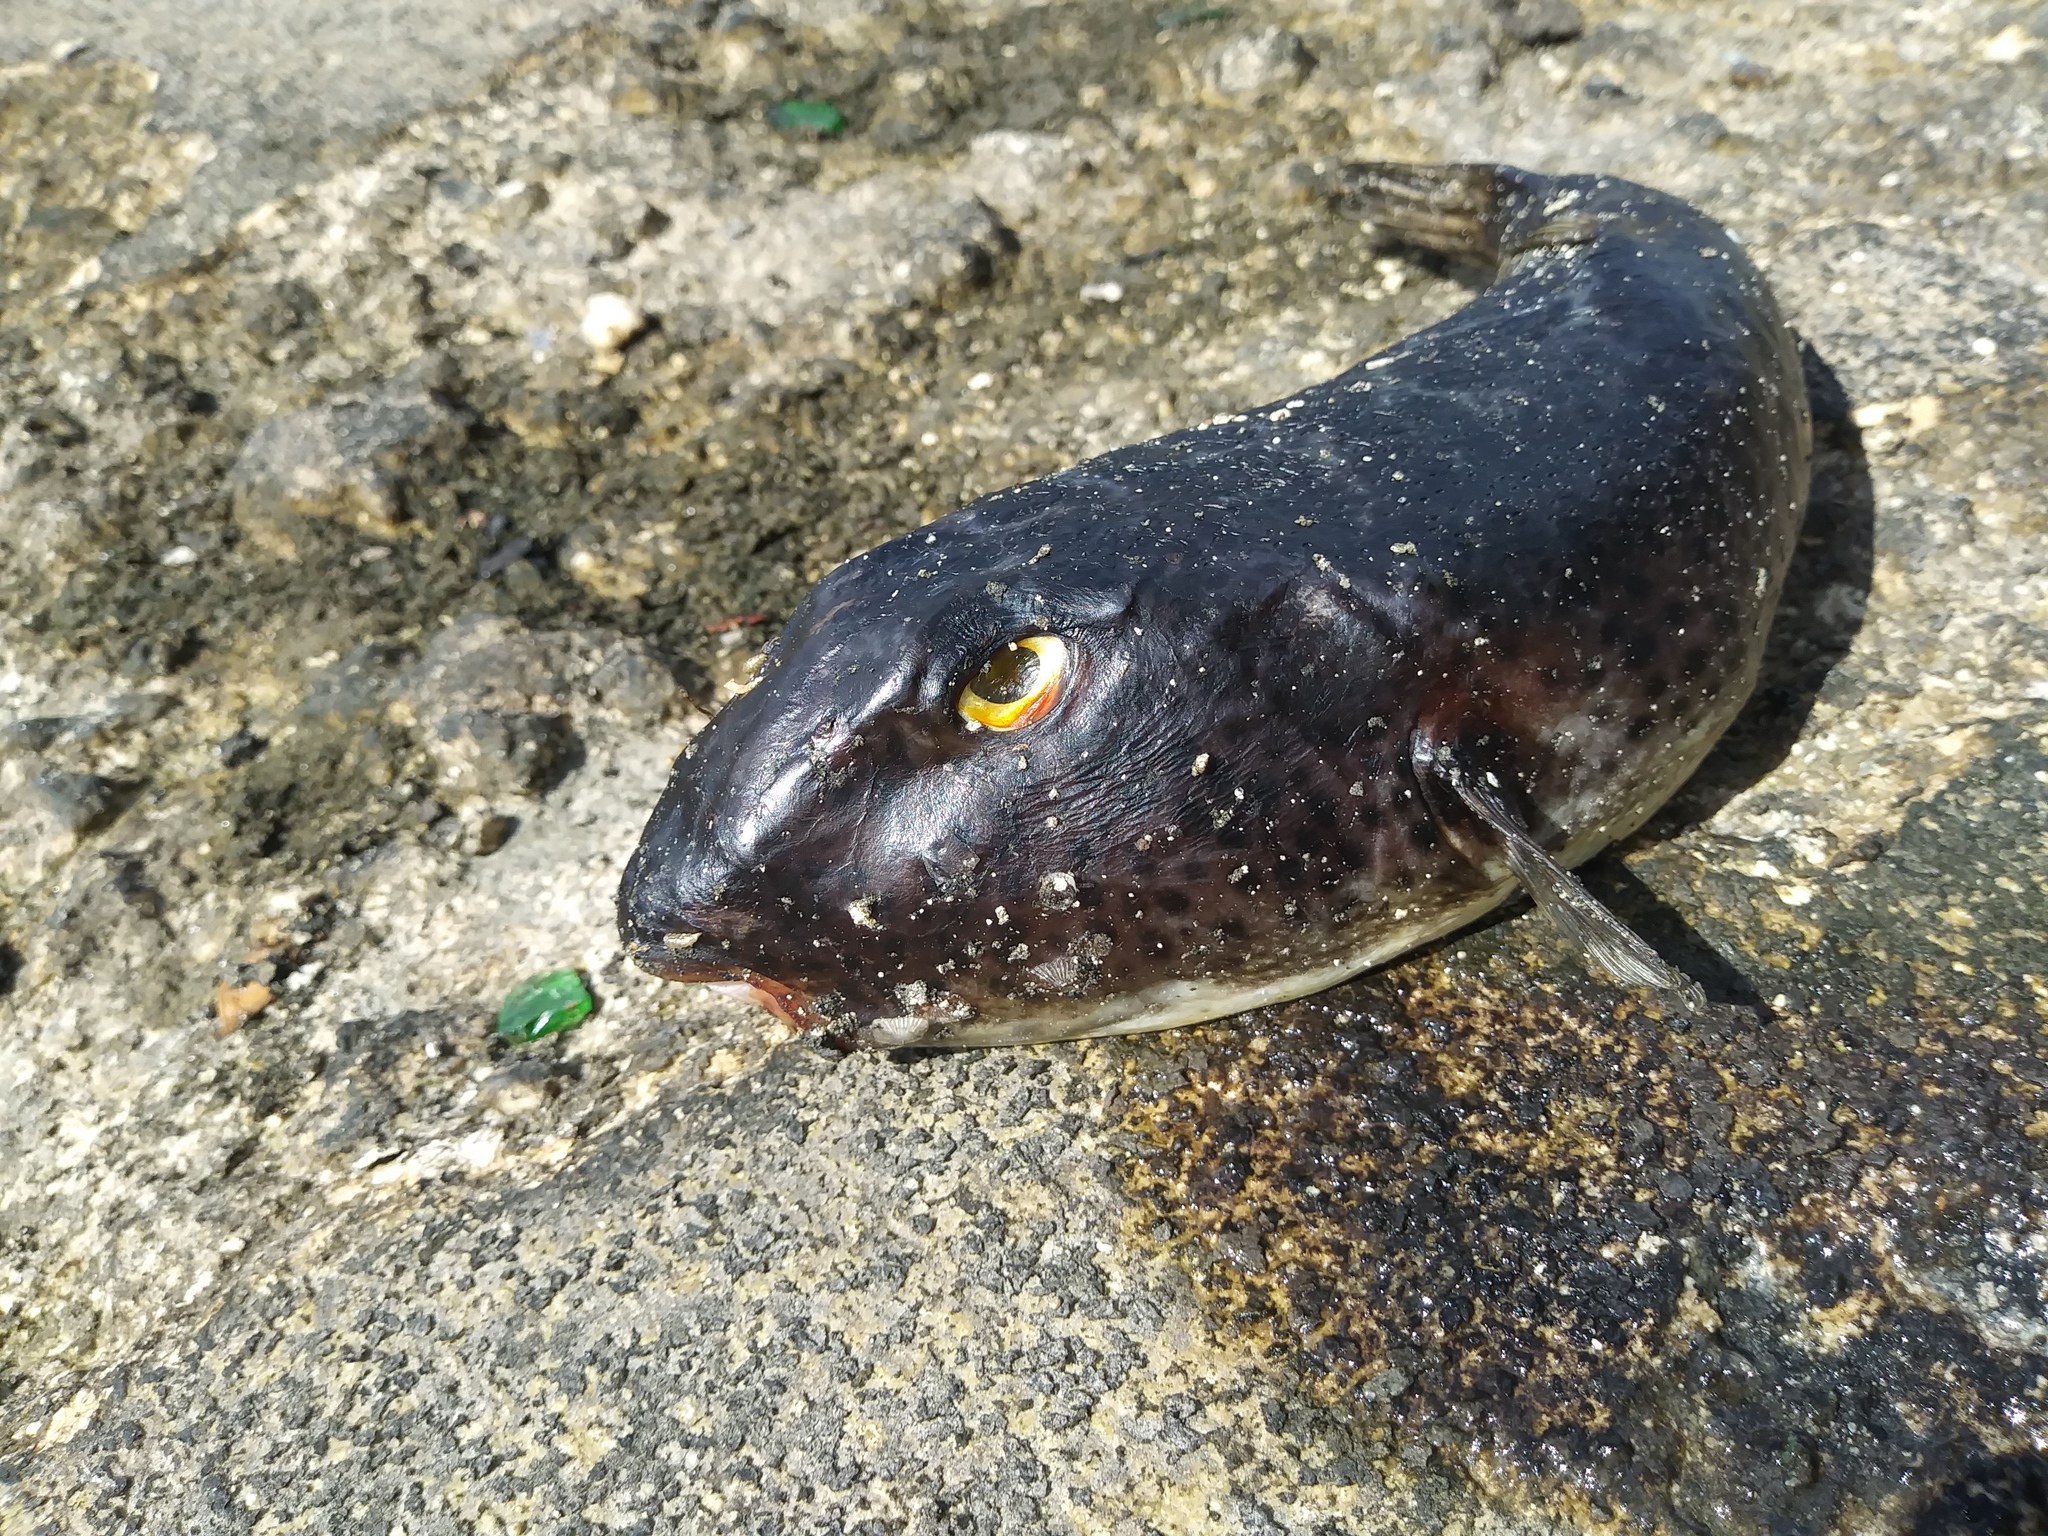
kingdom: Animalia
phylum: Chordata
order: Tetraodontiformes
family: Tetraodontidae
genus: Sphoeroides
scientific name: Sphoeroides testudineus
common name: Checkered puffer
